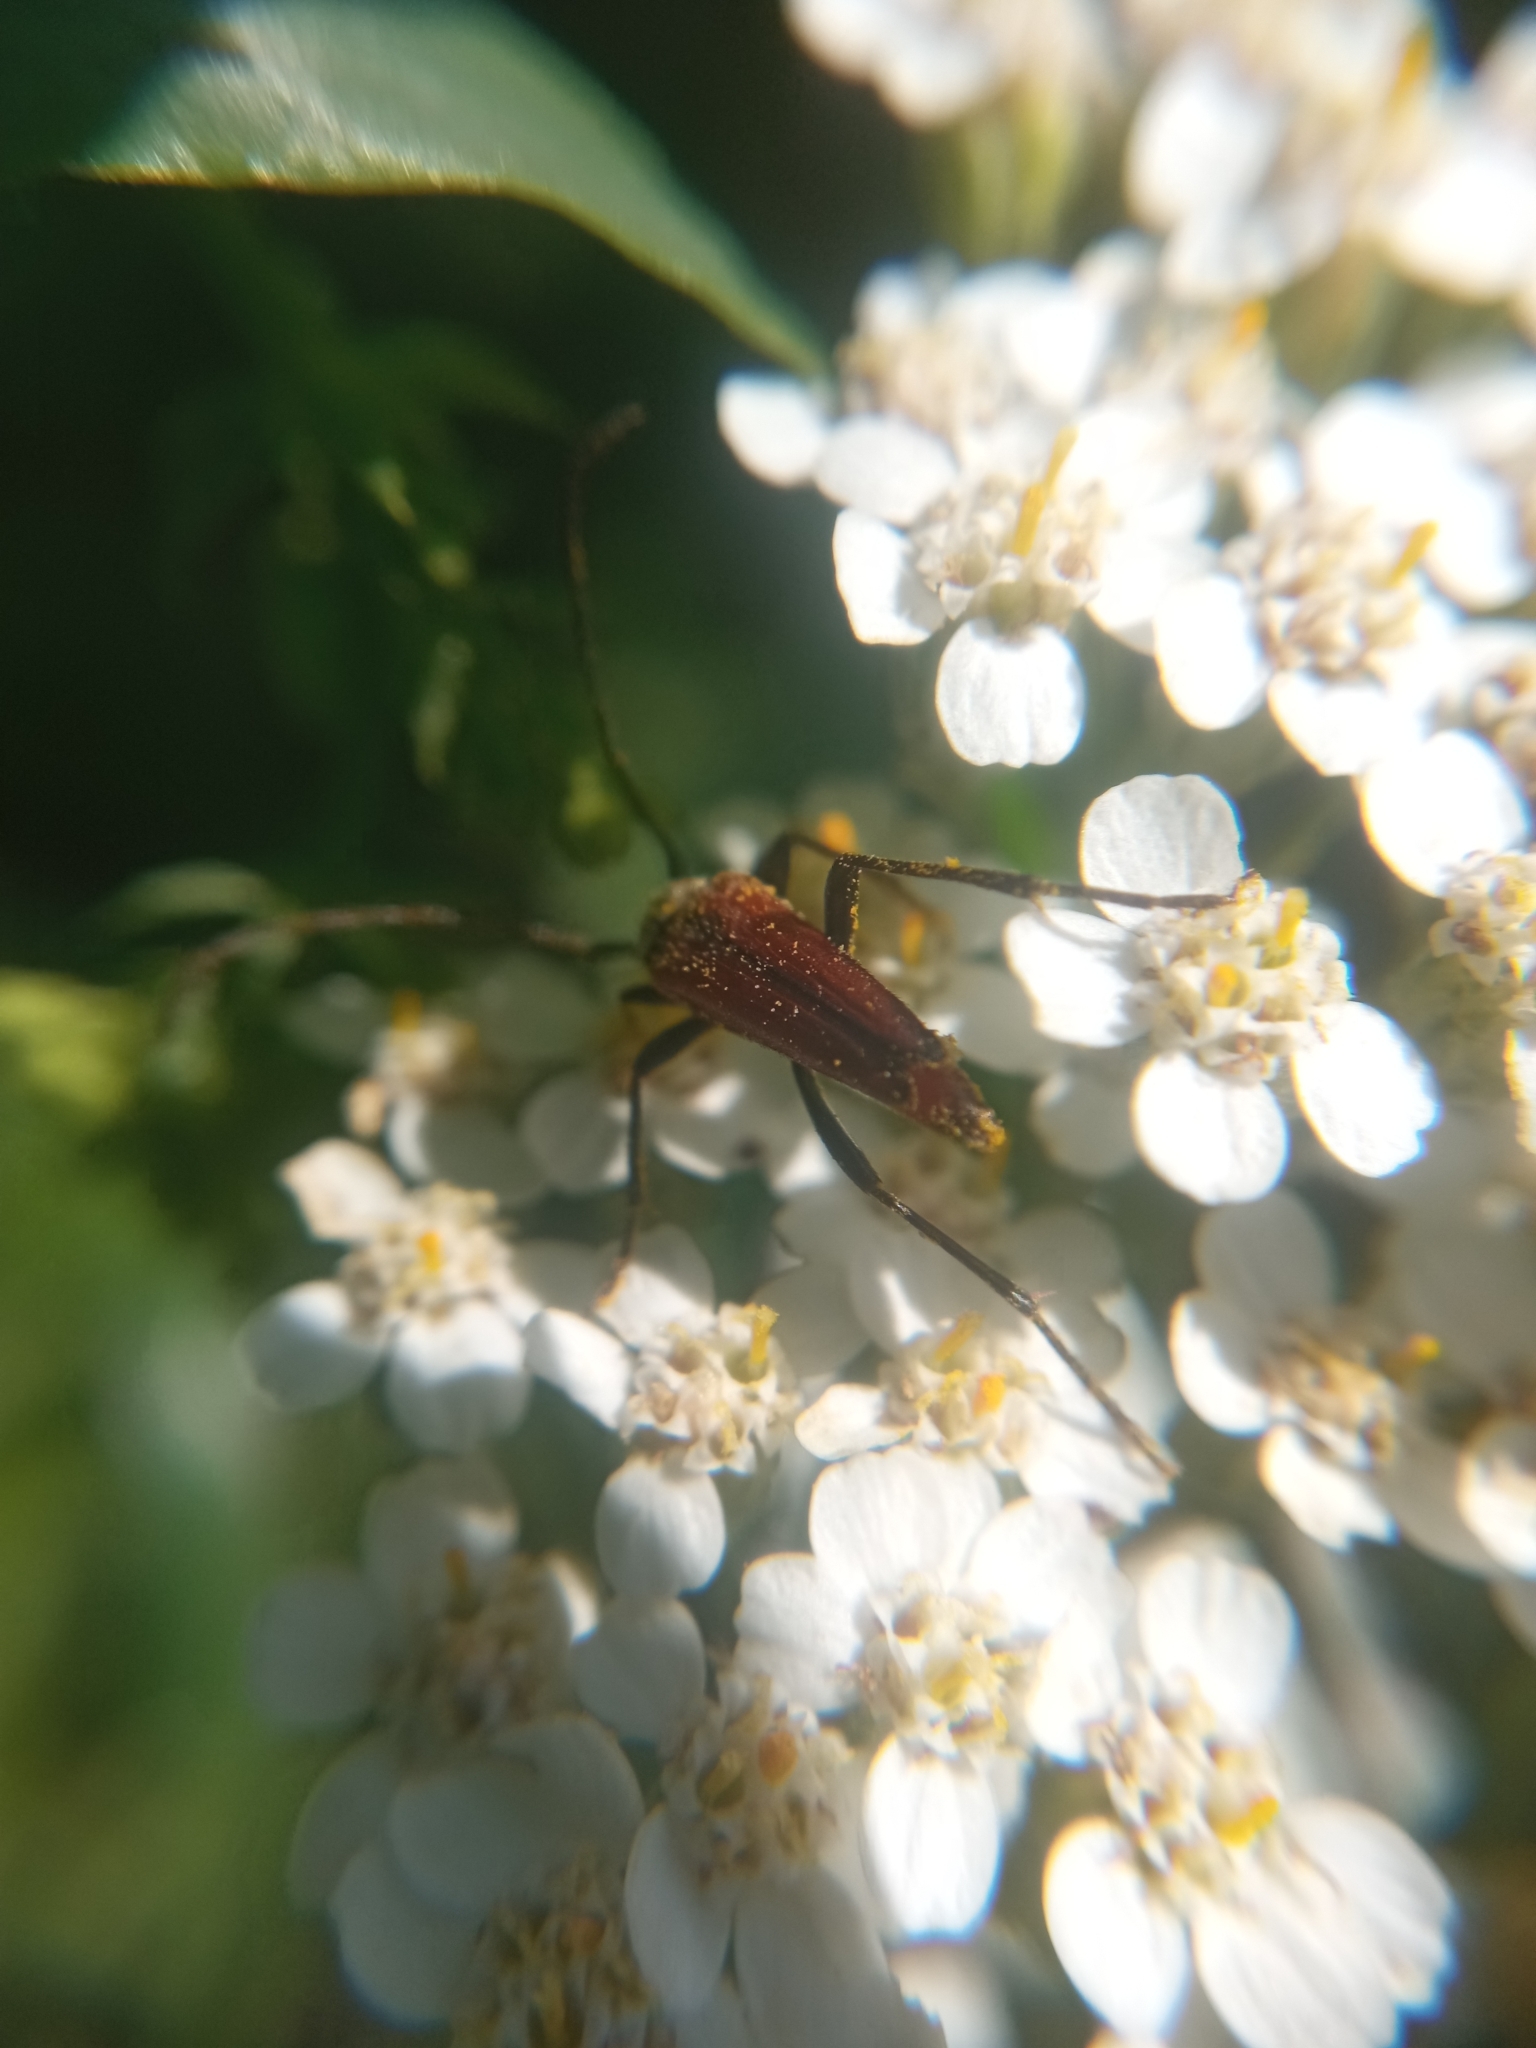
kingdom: Animalia
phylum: Arthropoda
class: Insecta
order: Coleoptera
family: Cerambycidae
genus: Stenurella
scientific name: Stenurella bifasciata
